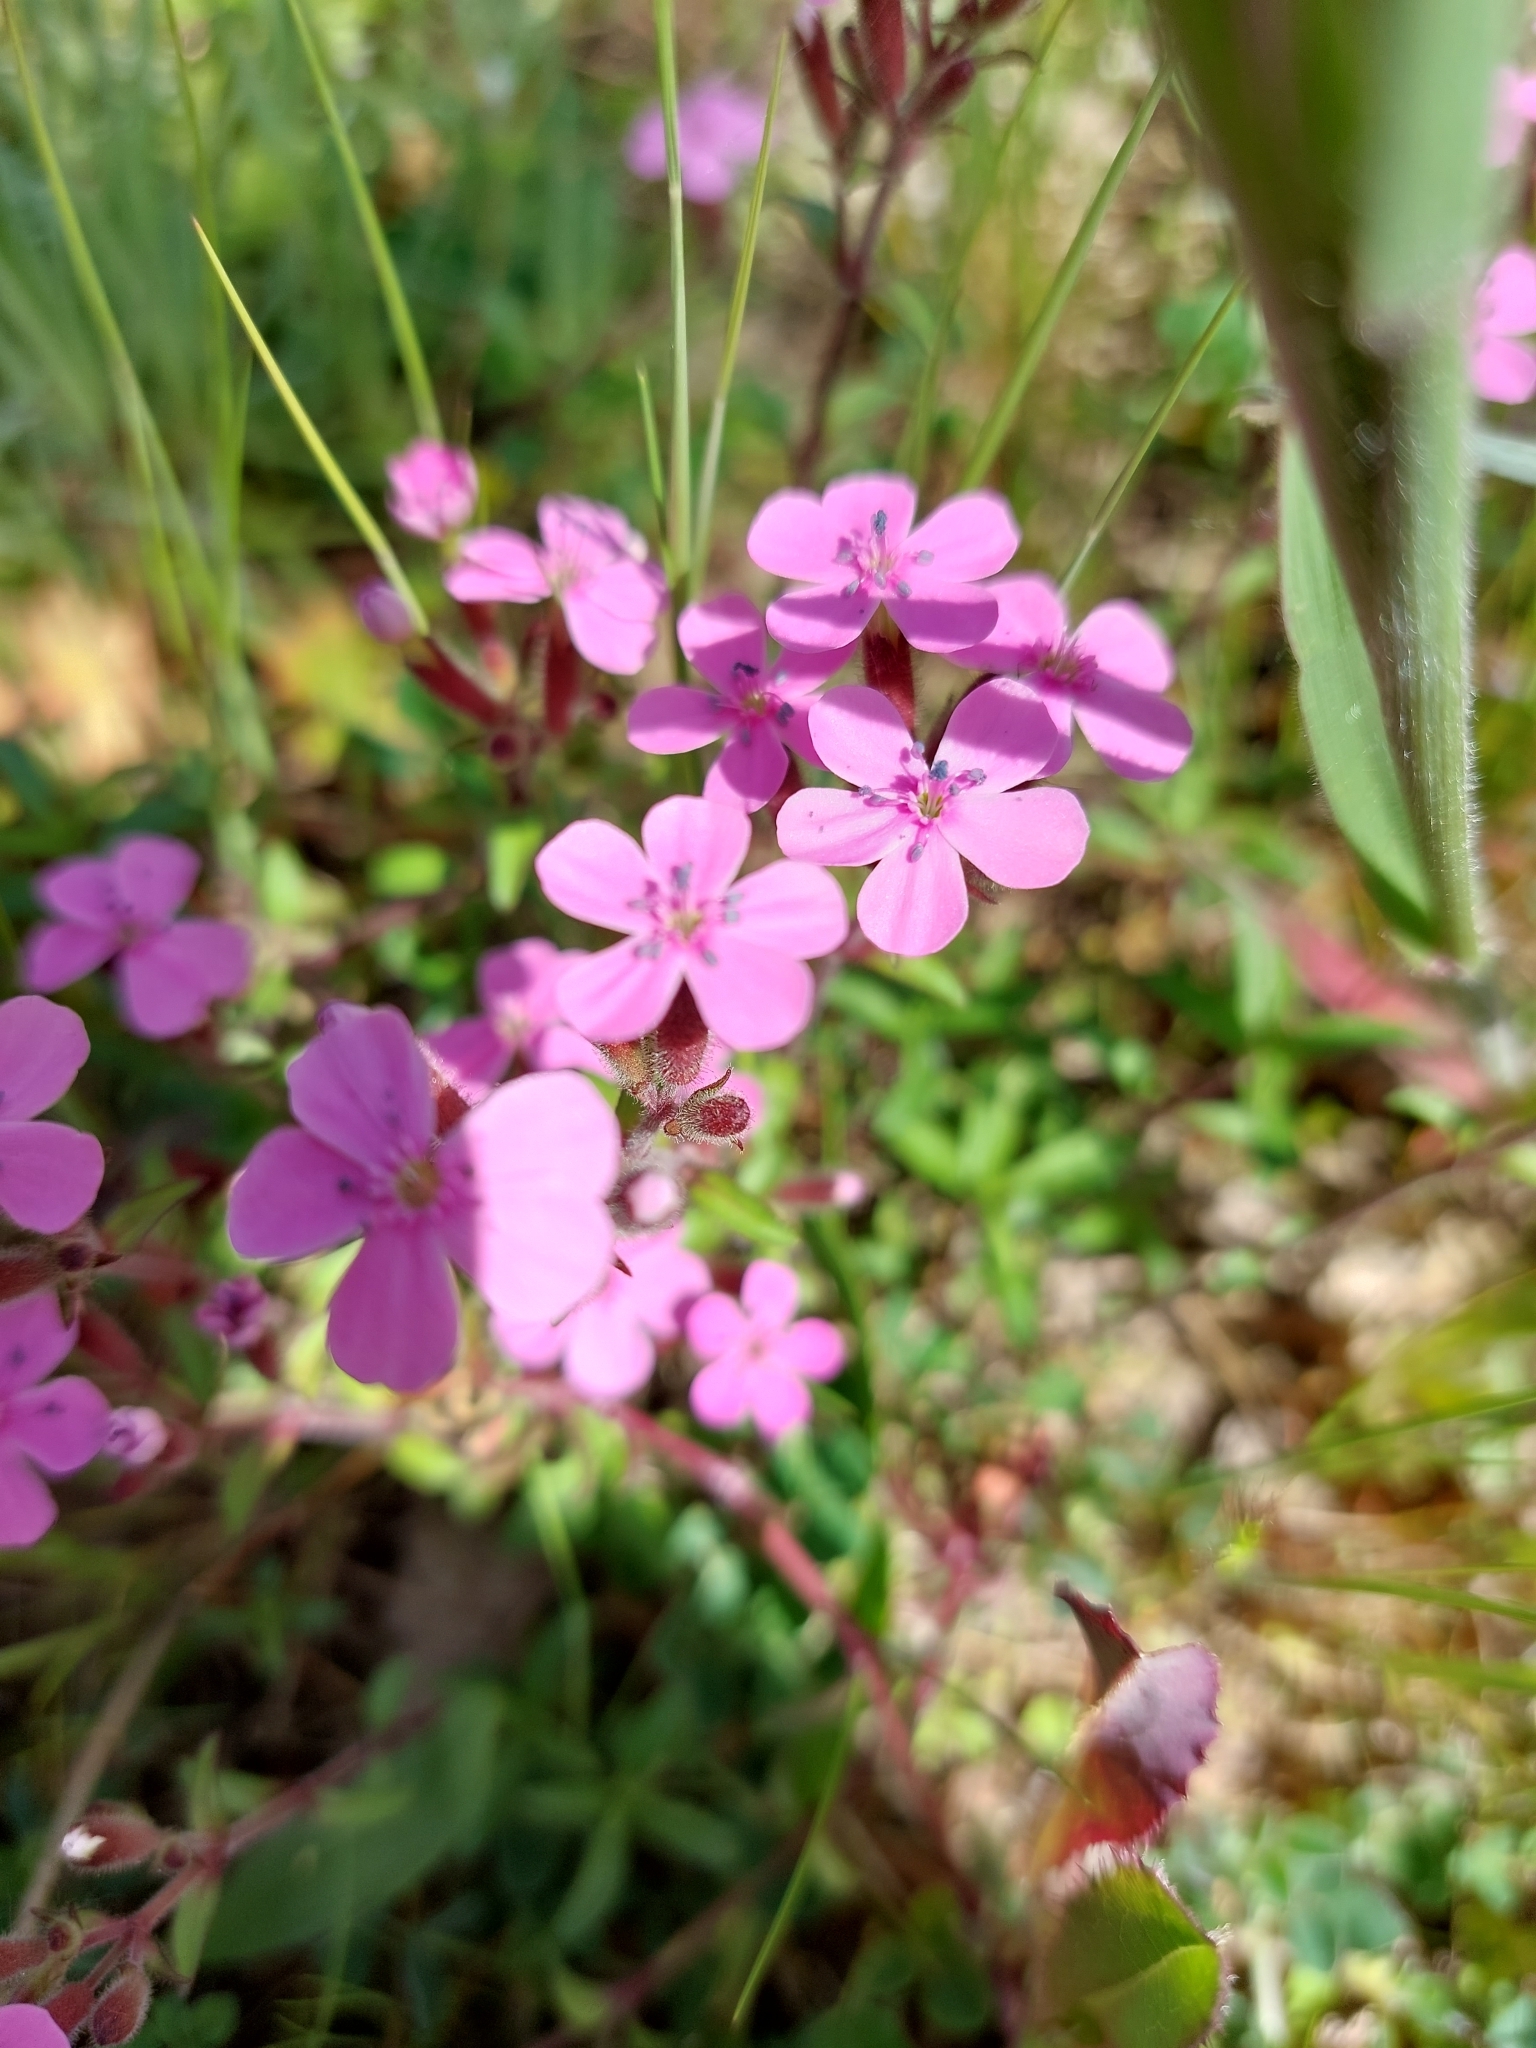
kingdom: Plantae
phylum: Tracheophyta
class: Magnoliopsida
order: Caryophyllales
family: Caryophyllaceae
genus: Saponaria
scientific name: Saponaria ocymoides
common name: Rock soapwort
